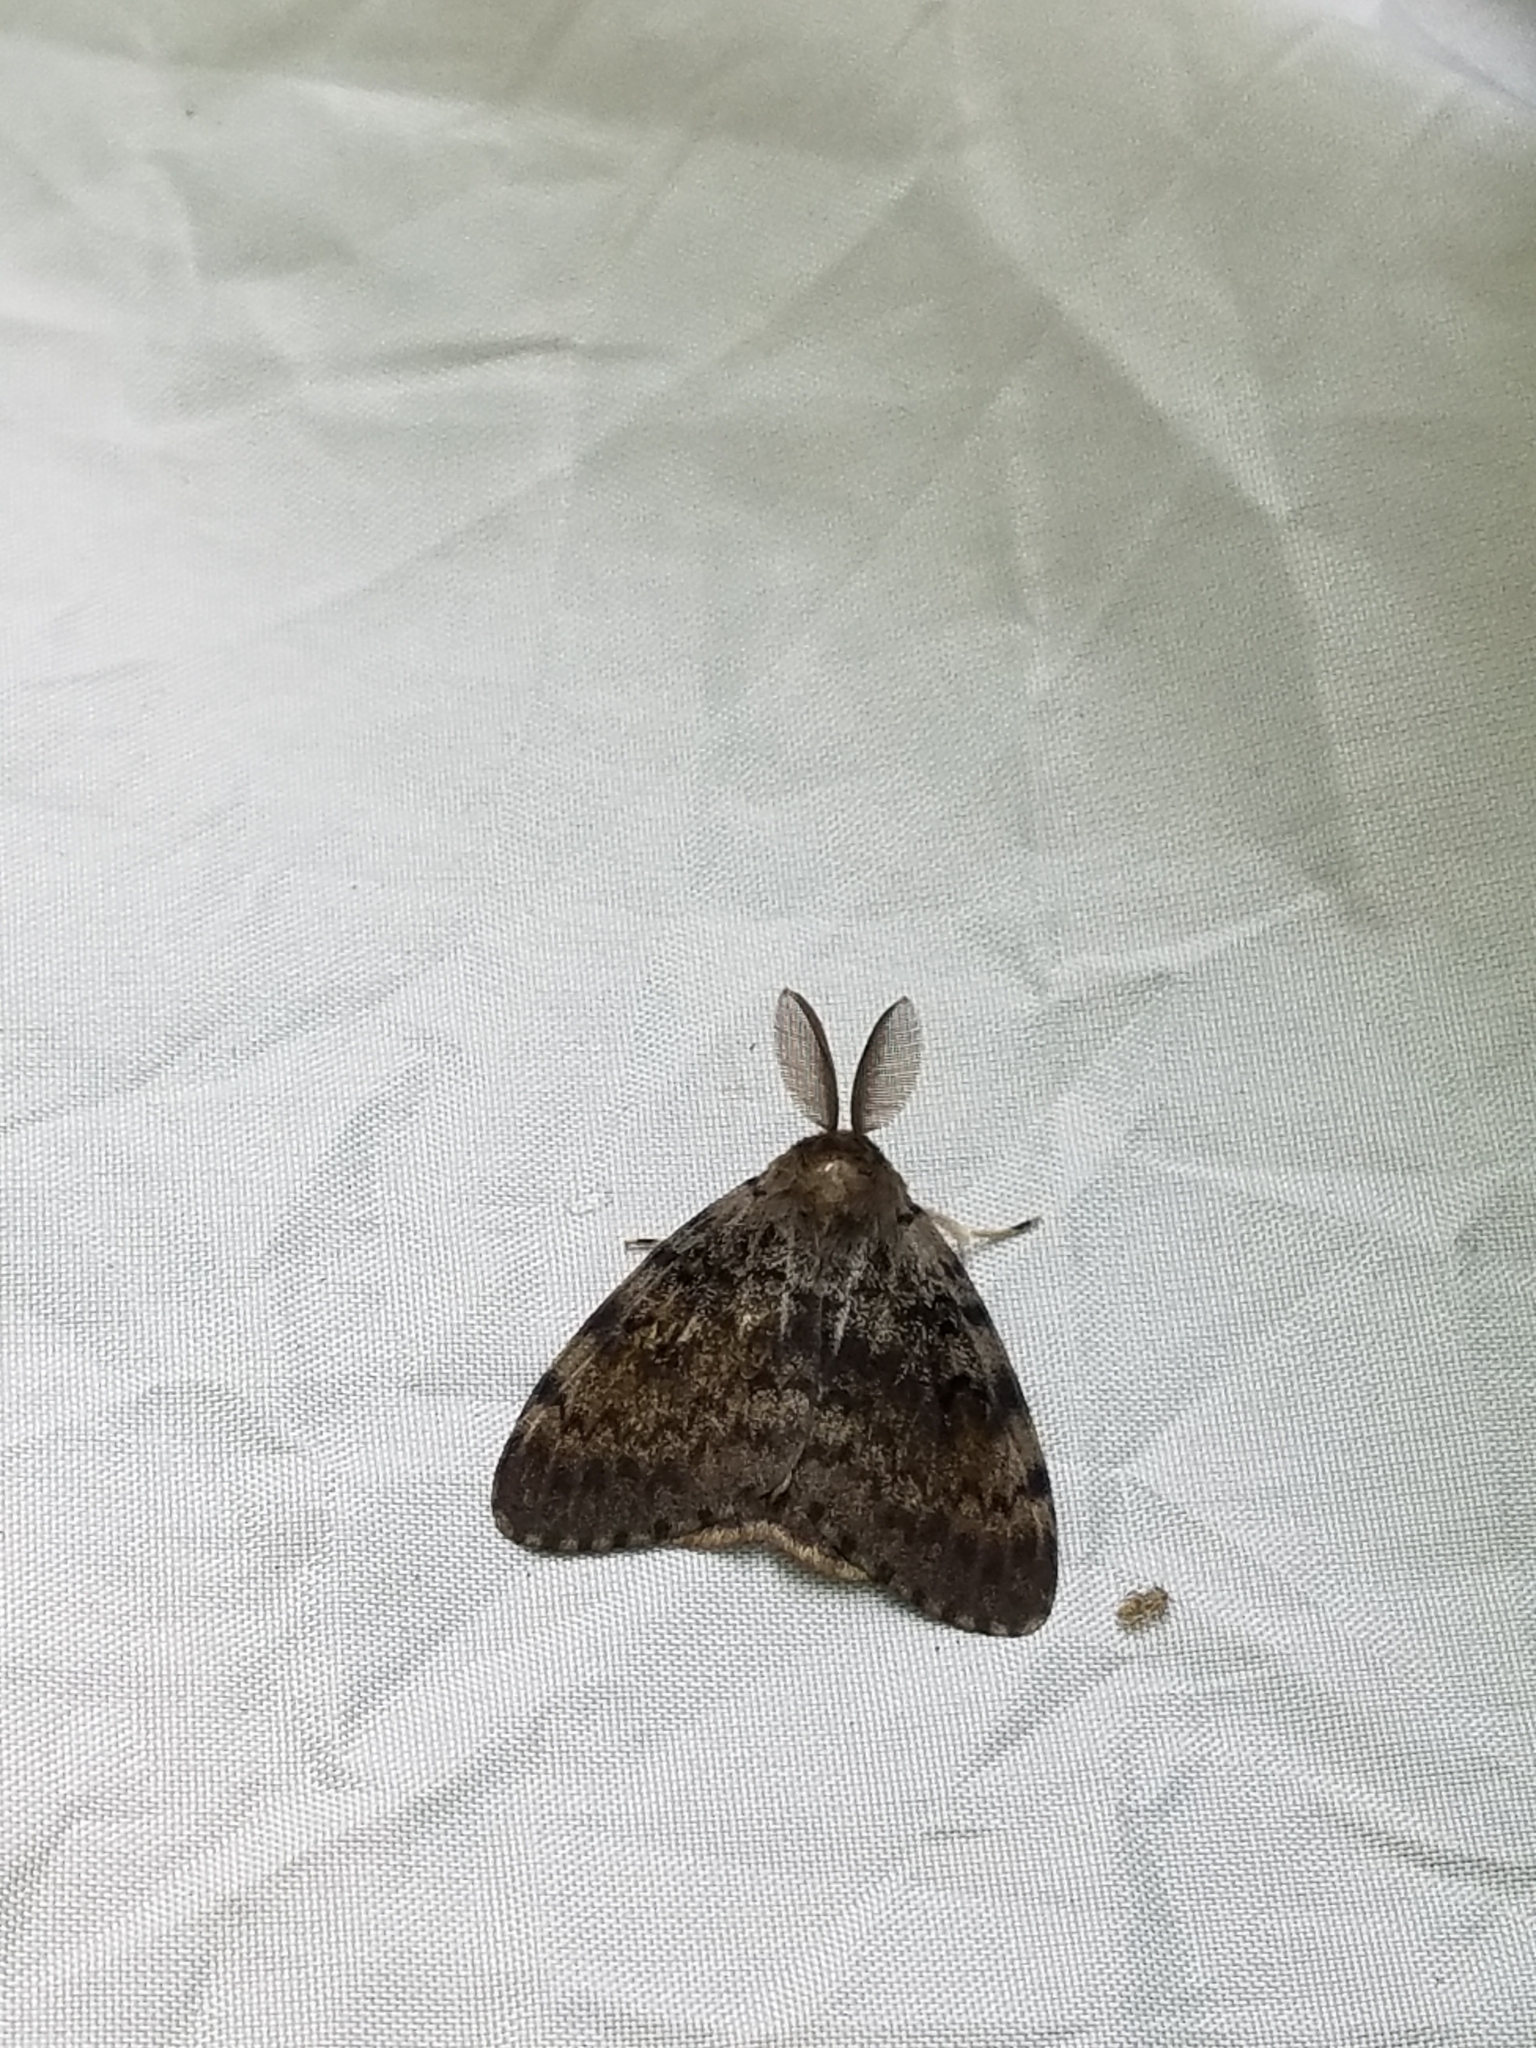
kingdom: Animalia
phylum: Arthropoda
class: Insecta
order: Lepidoptera
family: Erebidae
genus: Lymantria
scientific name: Lymantria dispar
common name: Gypsy moth
